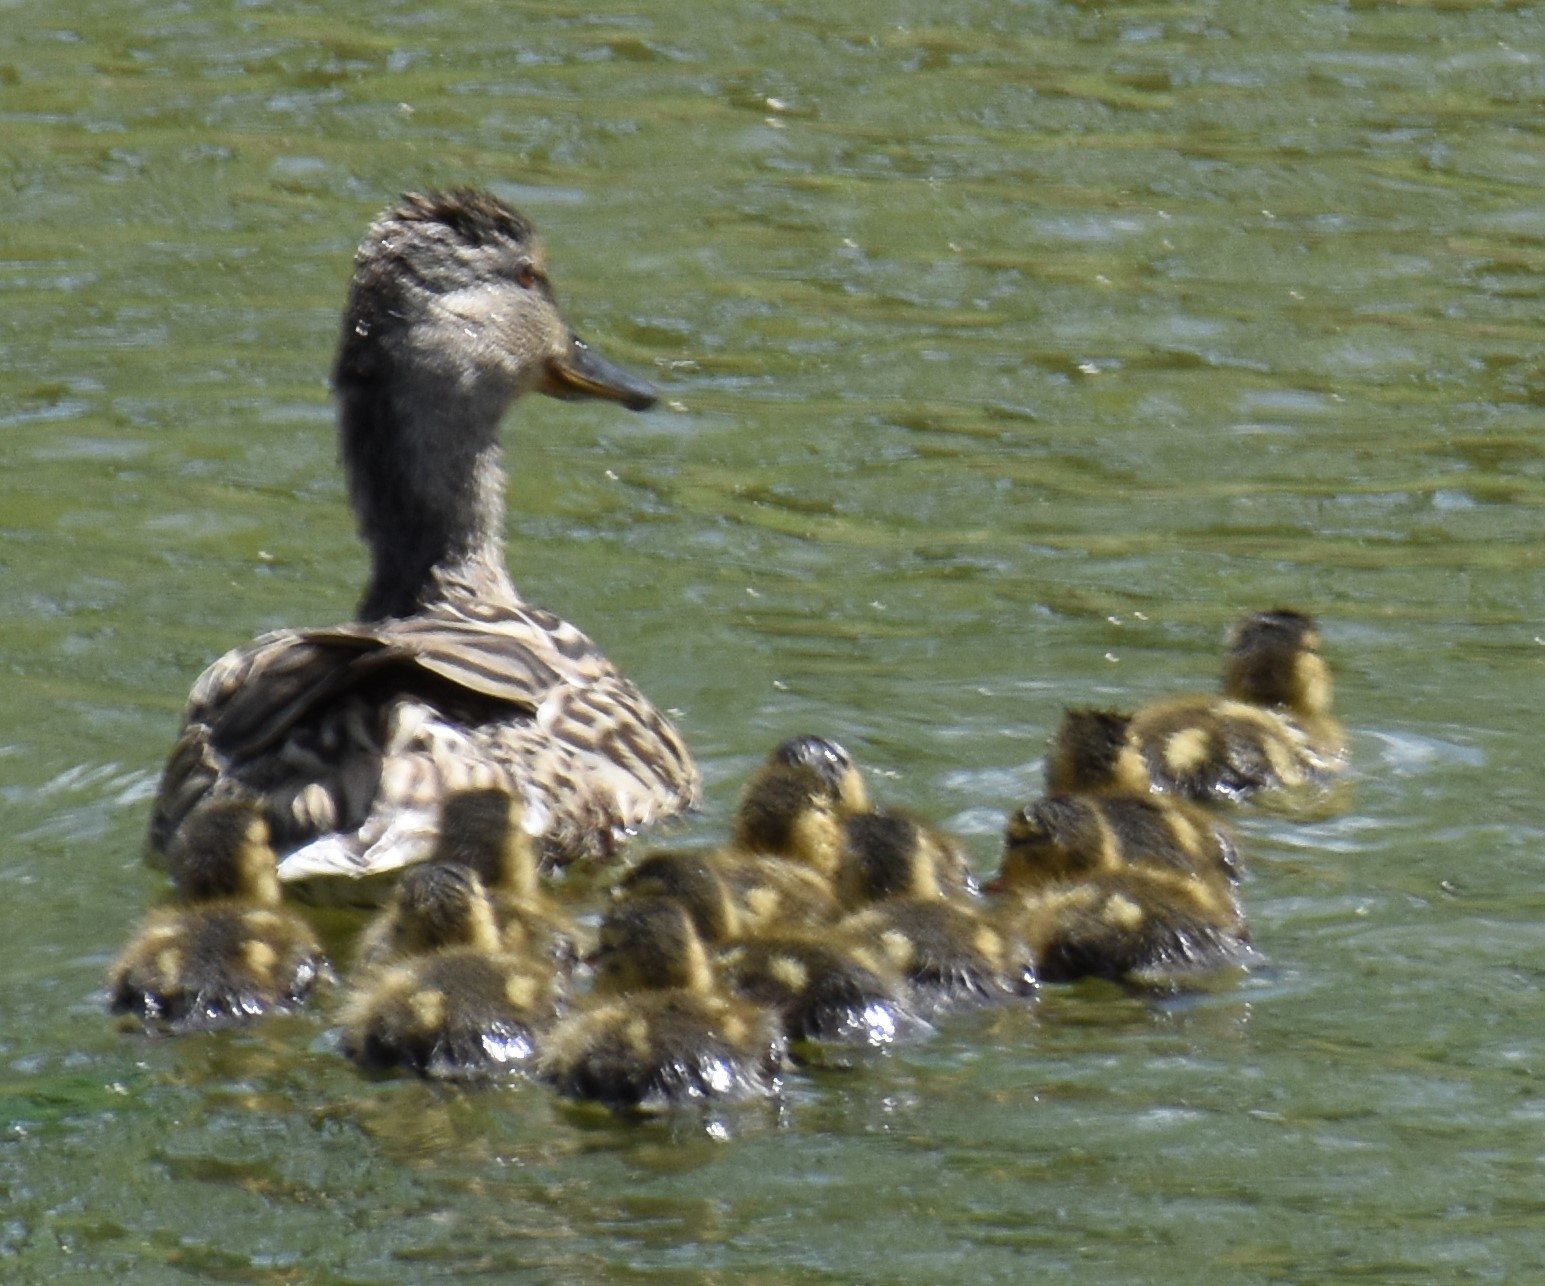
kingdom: Animalia
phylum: Chordata
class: Aves
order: Anseriformes
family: Anatidae
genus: Anas
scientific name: Anas platyrhynchos
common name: Mallard
